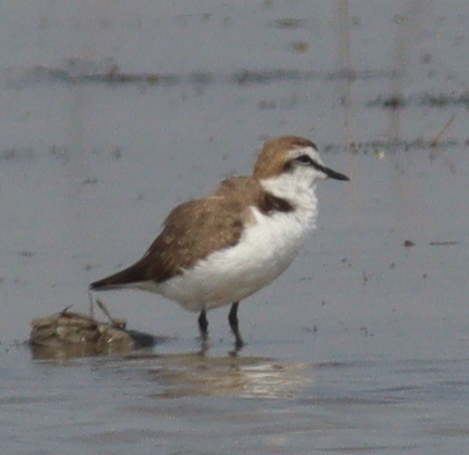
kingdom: Animalia
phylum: Chordata
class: Aves
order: Charadriiformes
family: Charadriidae
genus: Charadrius
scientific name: Charadrius alexandrinus
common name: Kentish plover
